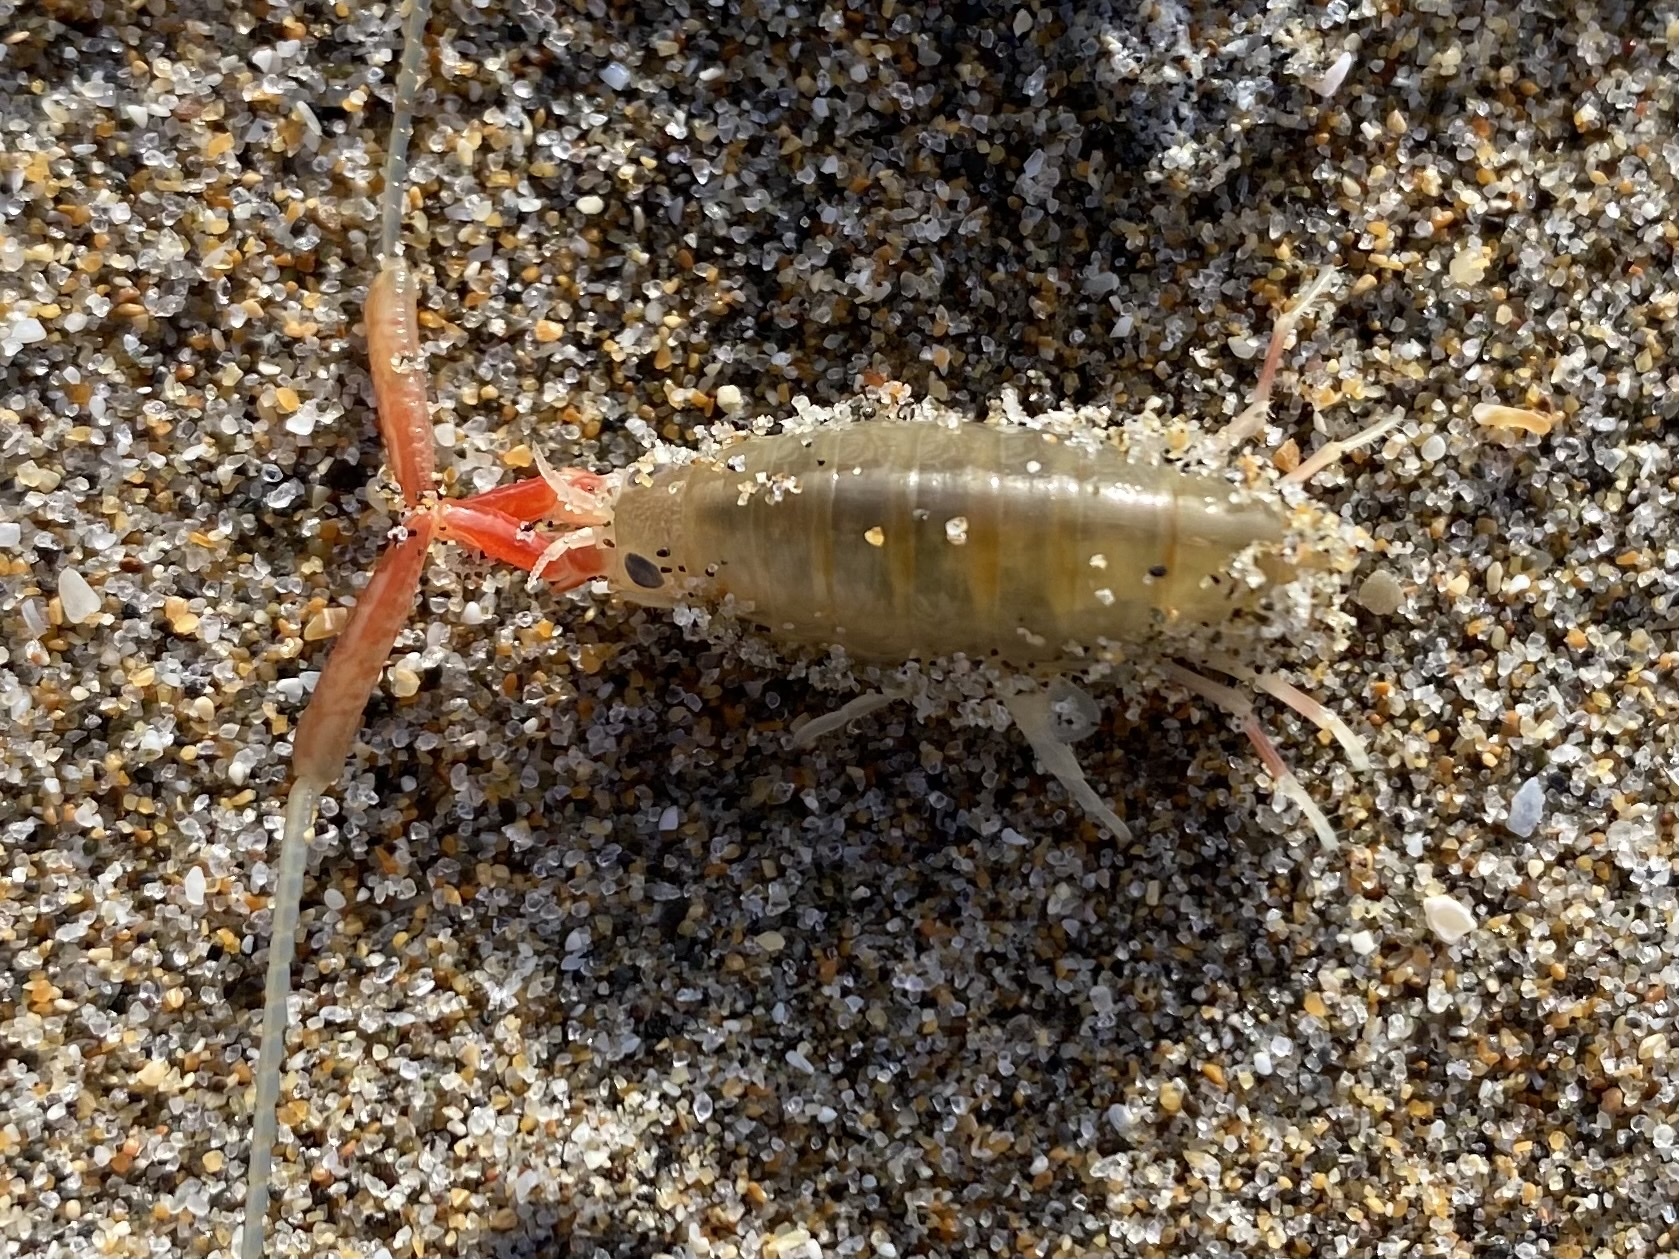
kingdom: Animalia
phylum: Arthropoda
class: Malacostraca
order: Amphipoda
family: Talitridae
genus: Megalorchestia
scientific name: Megalorchestia californiana
